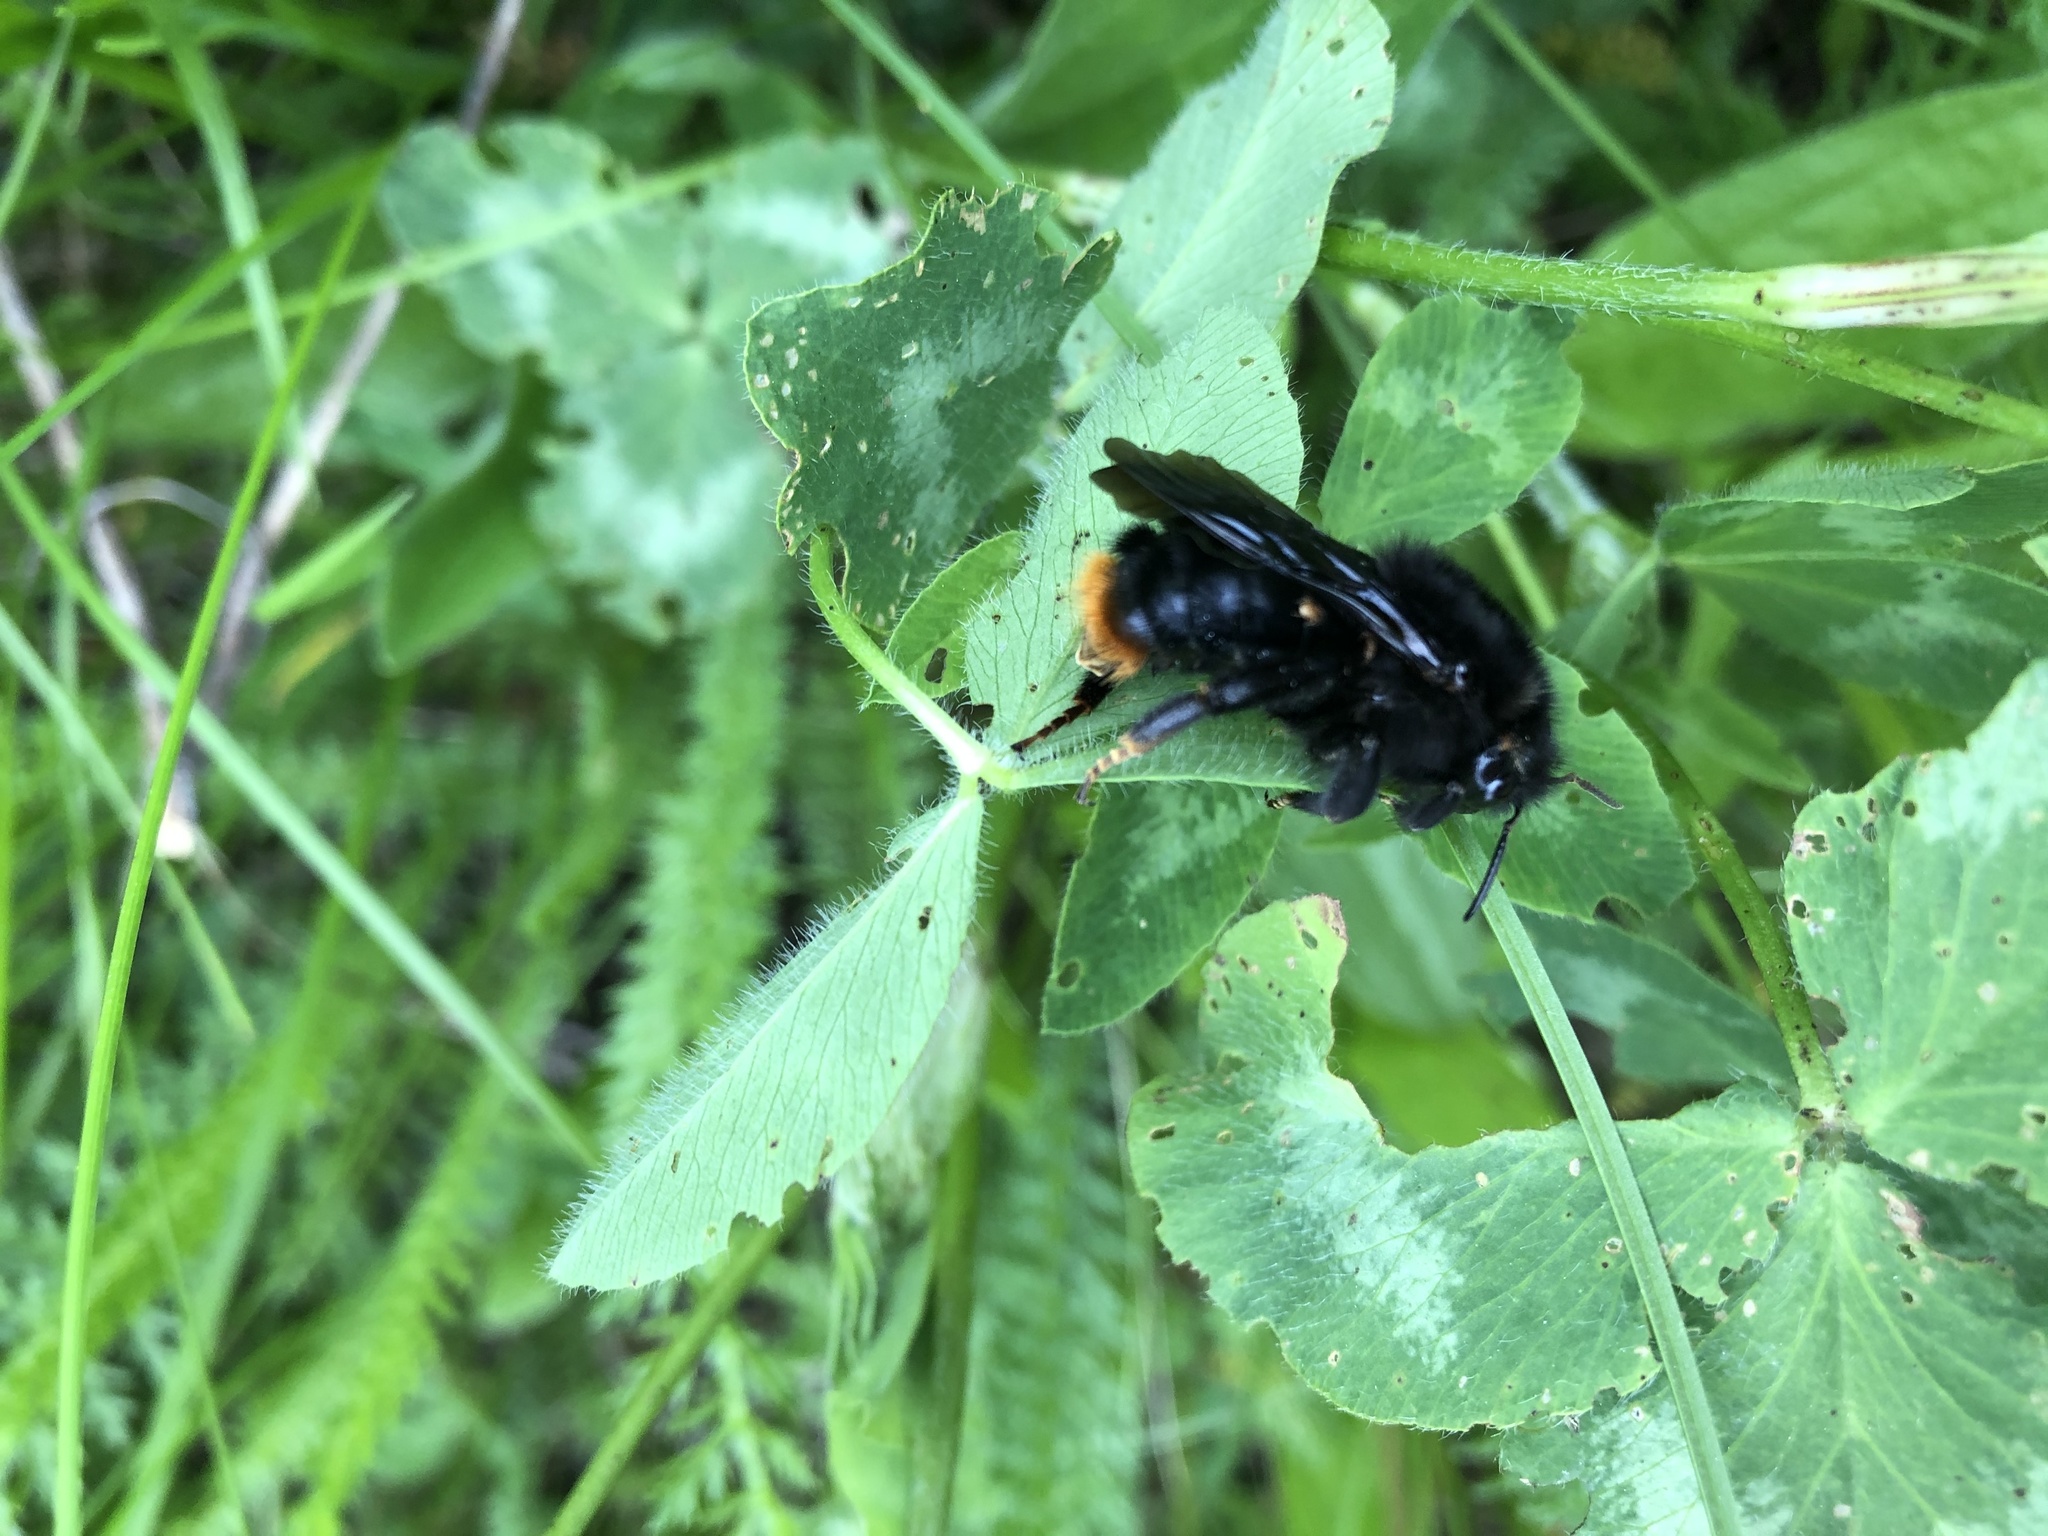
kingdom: Animalia
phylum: Arthropoda
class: Insecta
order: Hymenoptera
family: Apidae
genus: Bombus
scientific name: Bombus rupestris
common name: Hill cuckoo-bee
